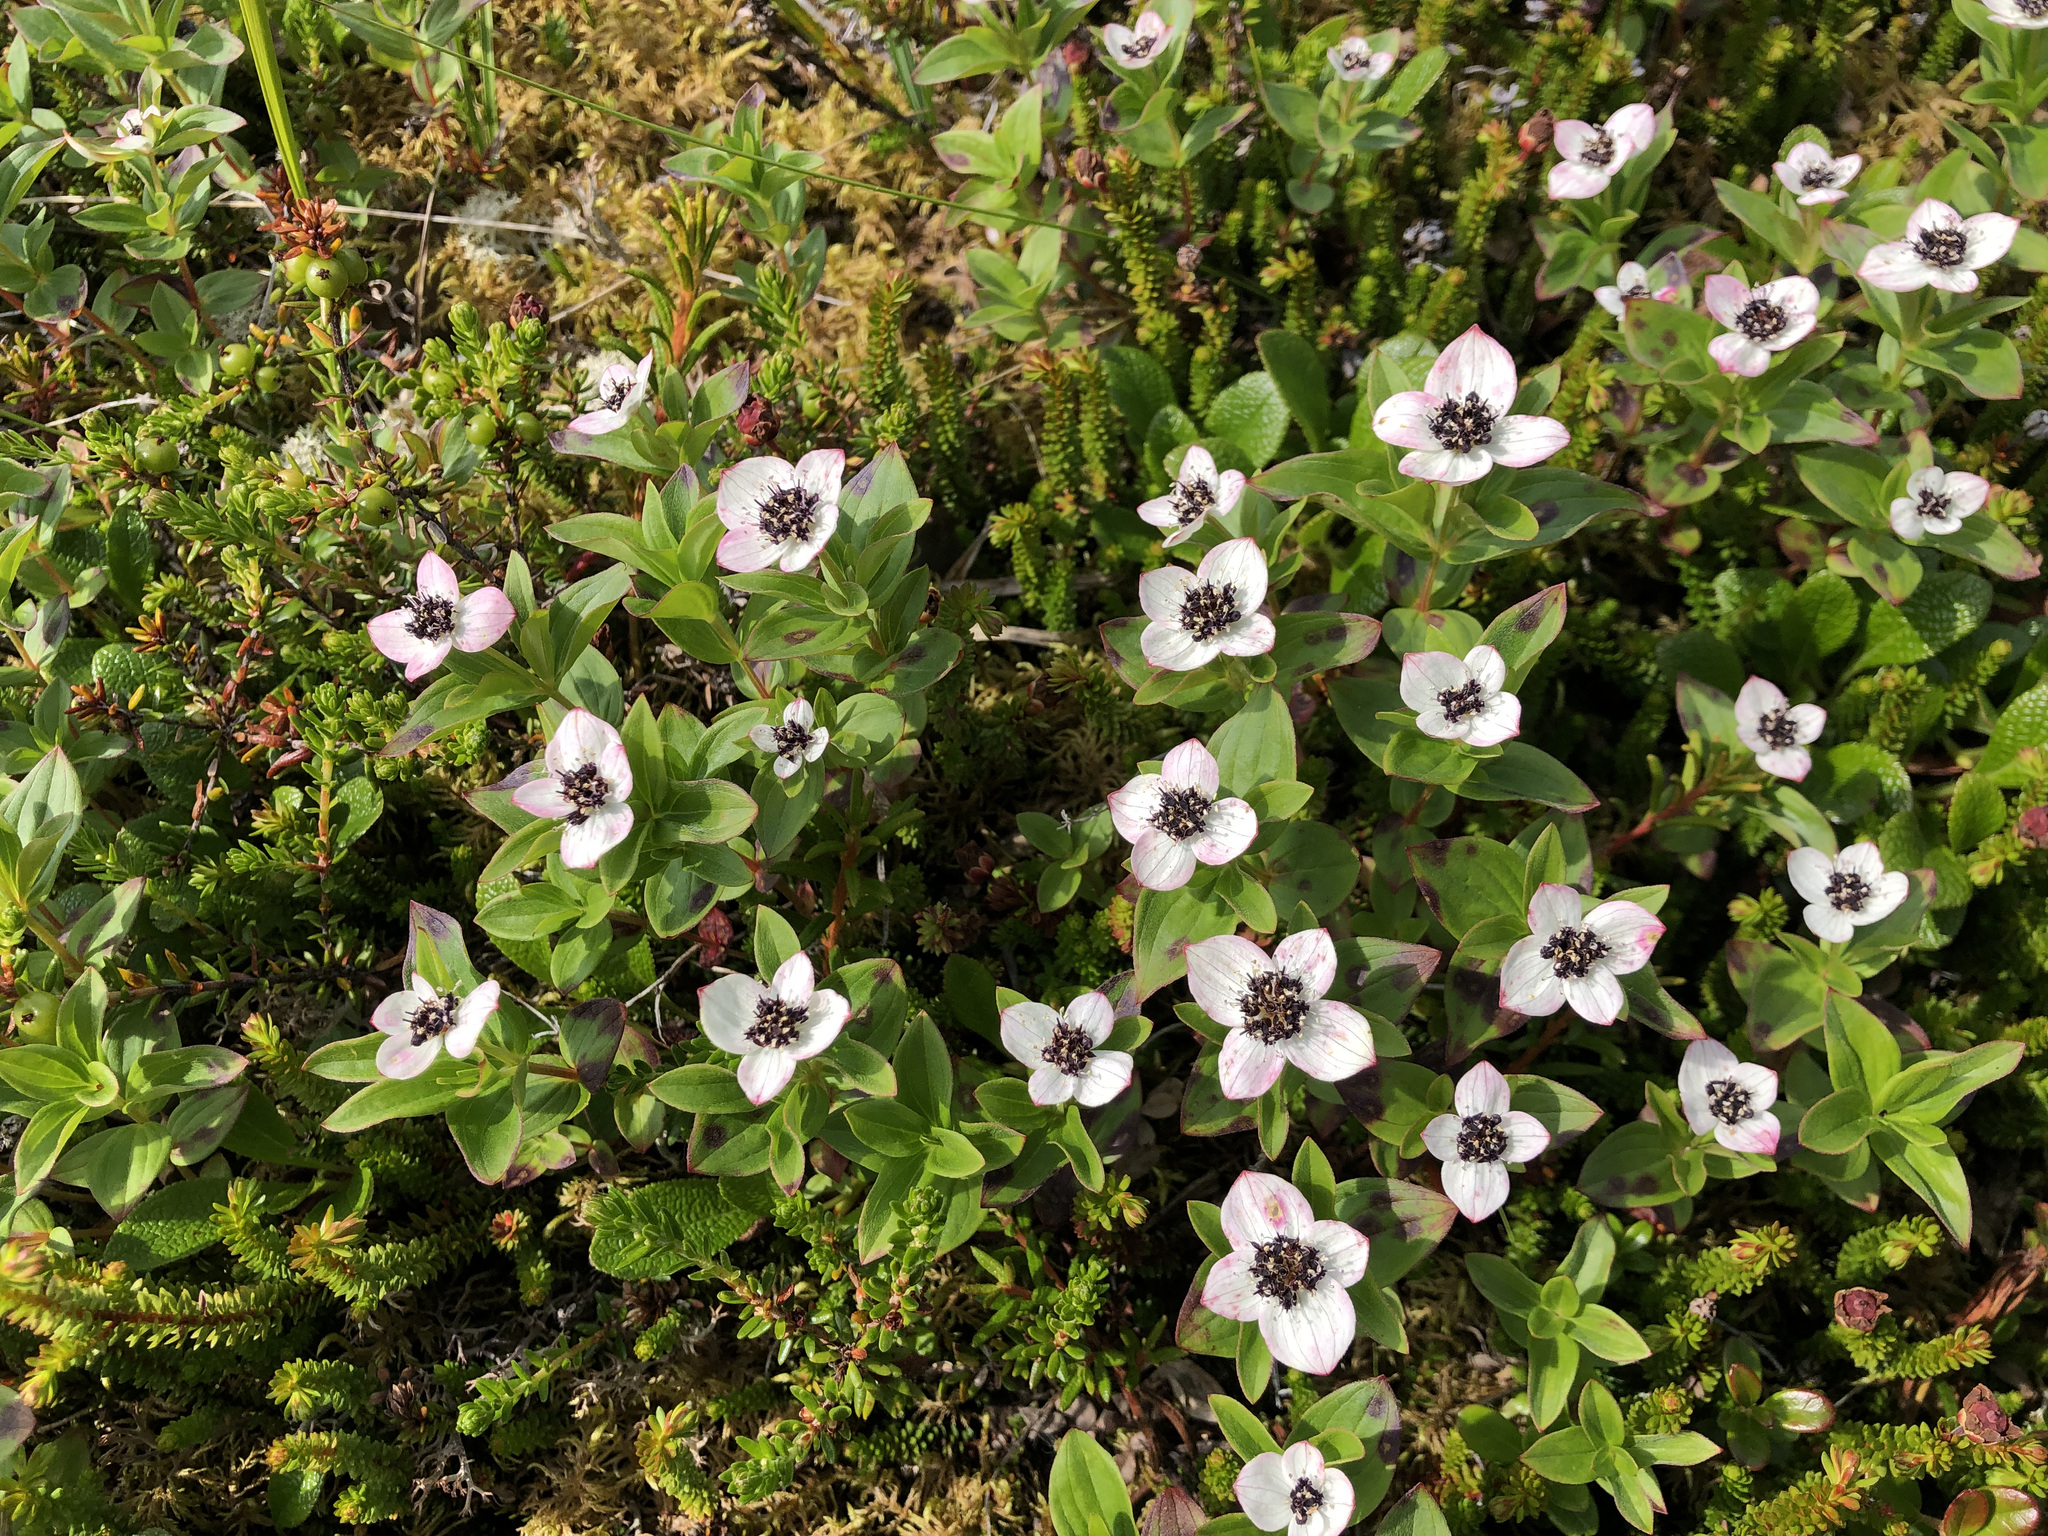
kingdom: Plantae
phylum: Tracheophyta
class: Magnoliopsida
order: Cornales
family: Cornaceae
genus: Cornus
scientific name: Cornus suecica
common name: Dwarf cornel
